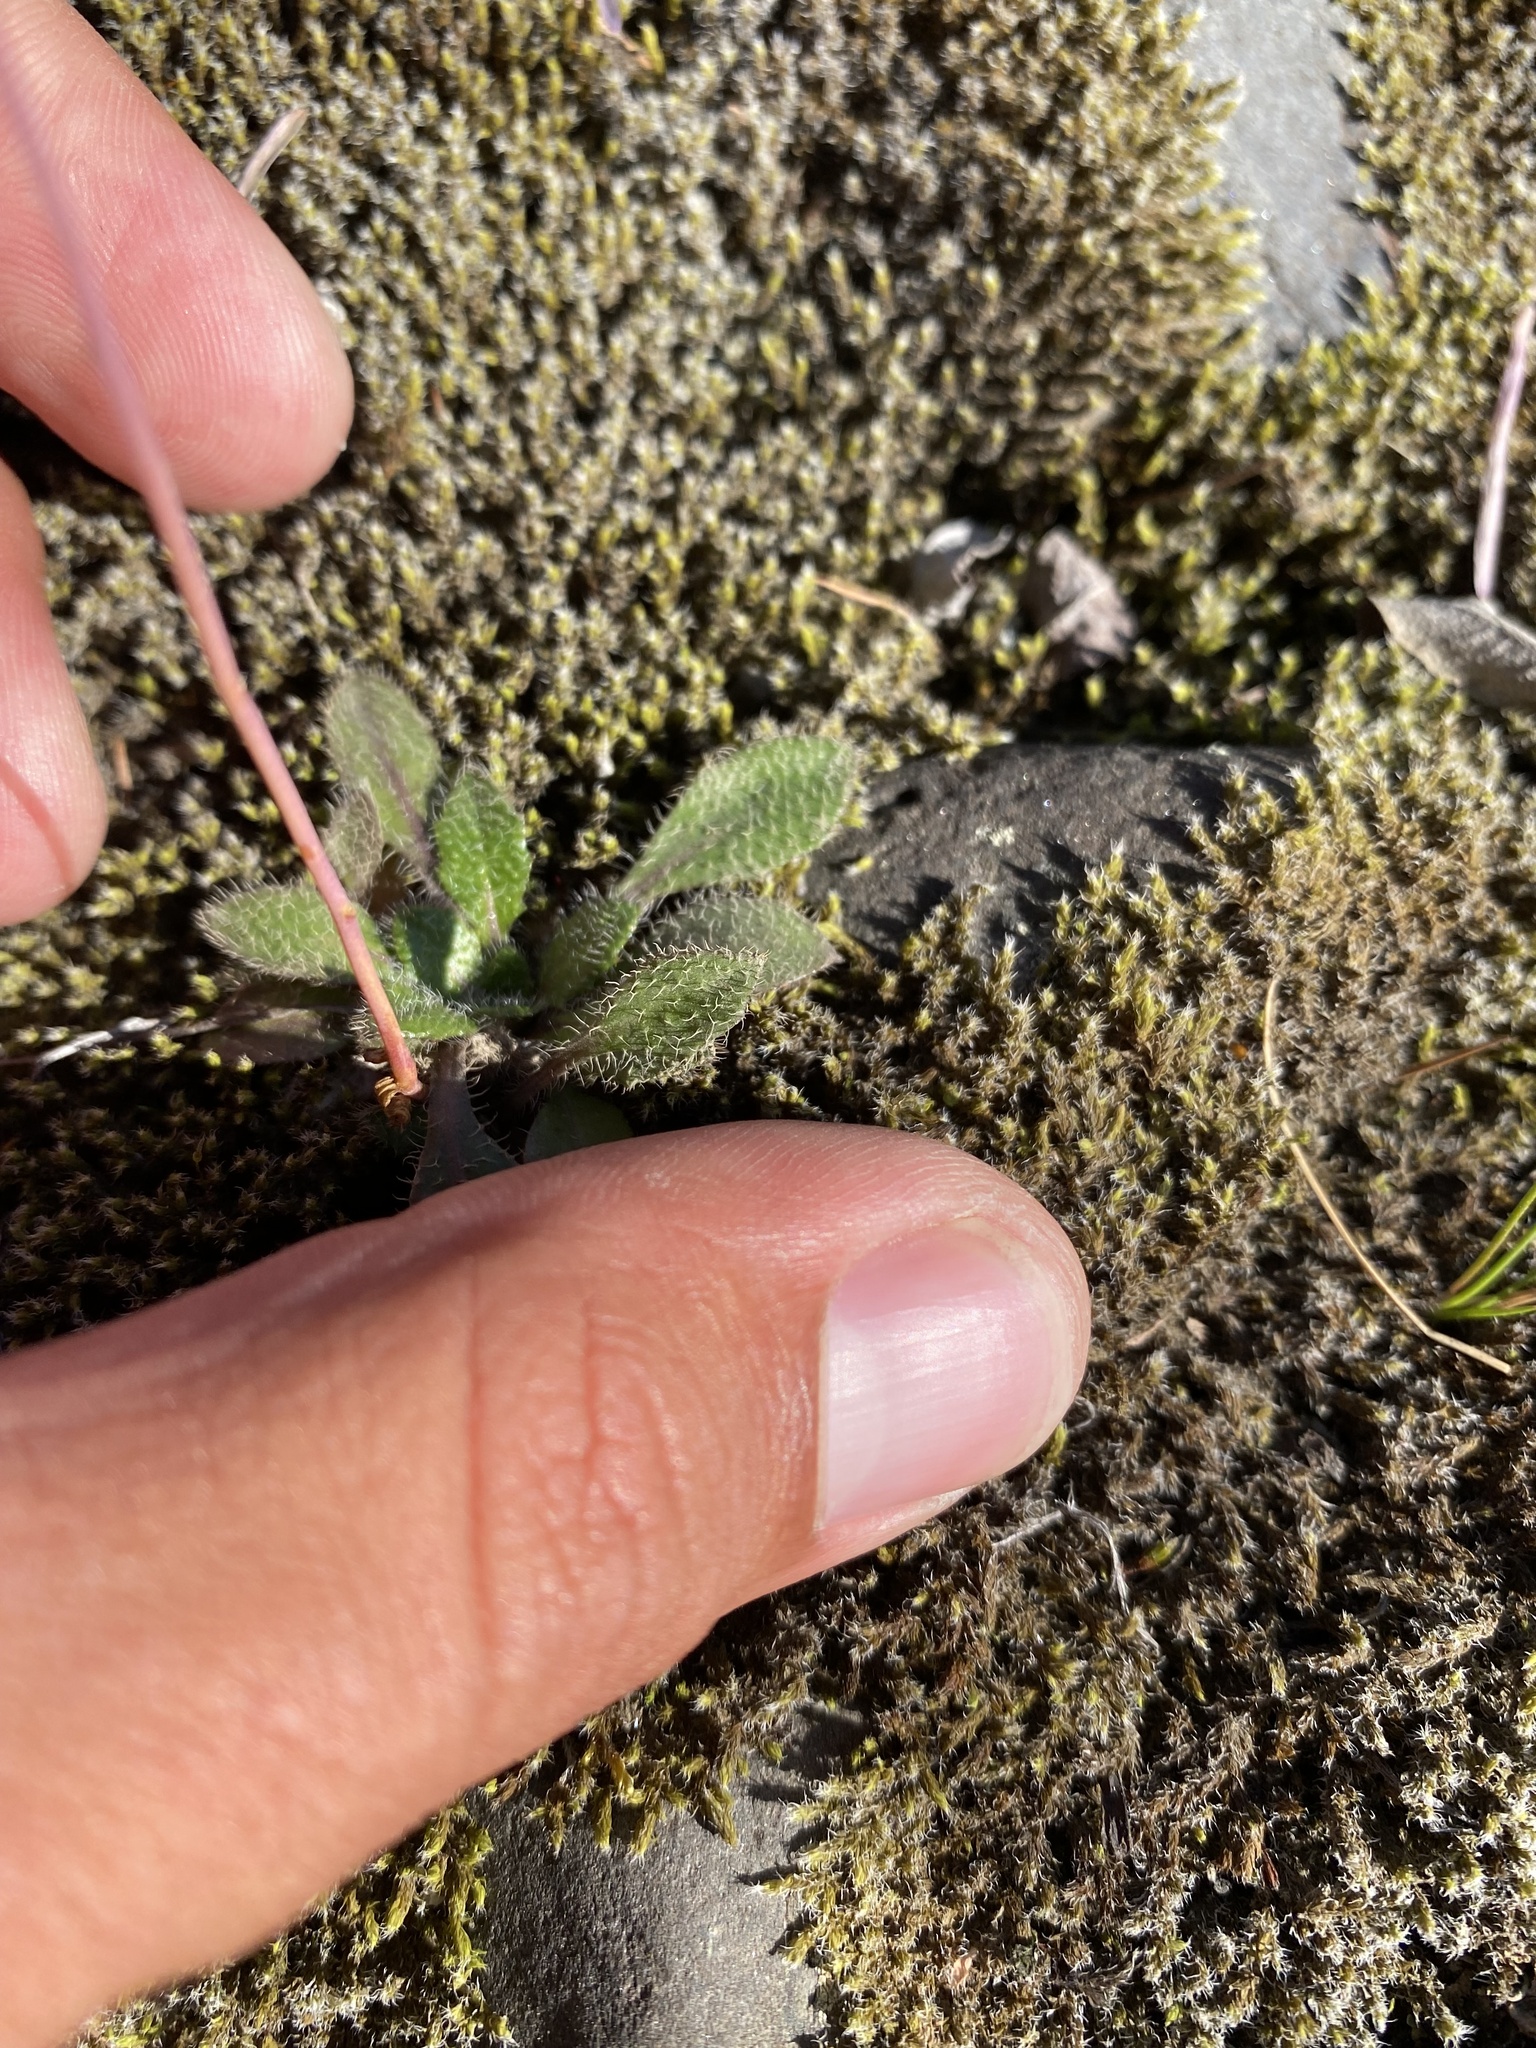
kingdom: Plantae
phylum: Tracheophyta
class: Magnoliopsida
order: Brassicales
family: Brassicaceae
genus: Erysimum
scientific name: Erysimum pallasii
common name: Pallas' wallflower
